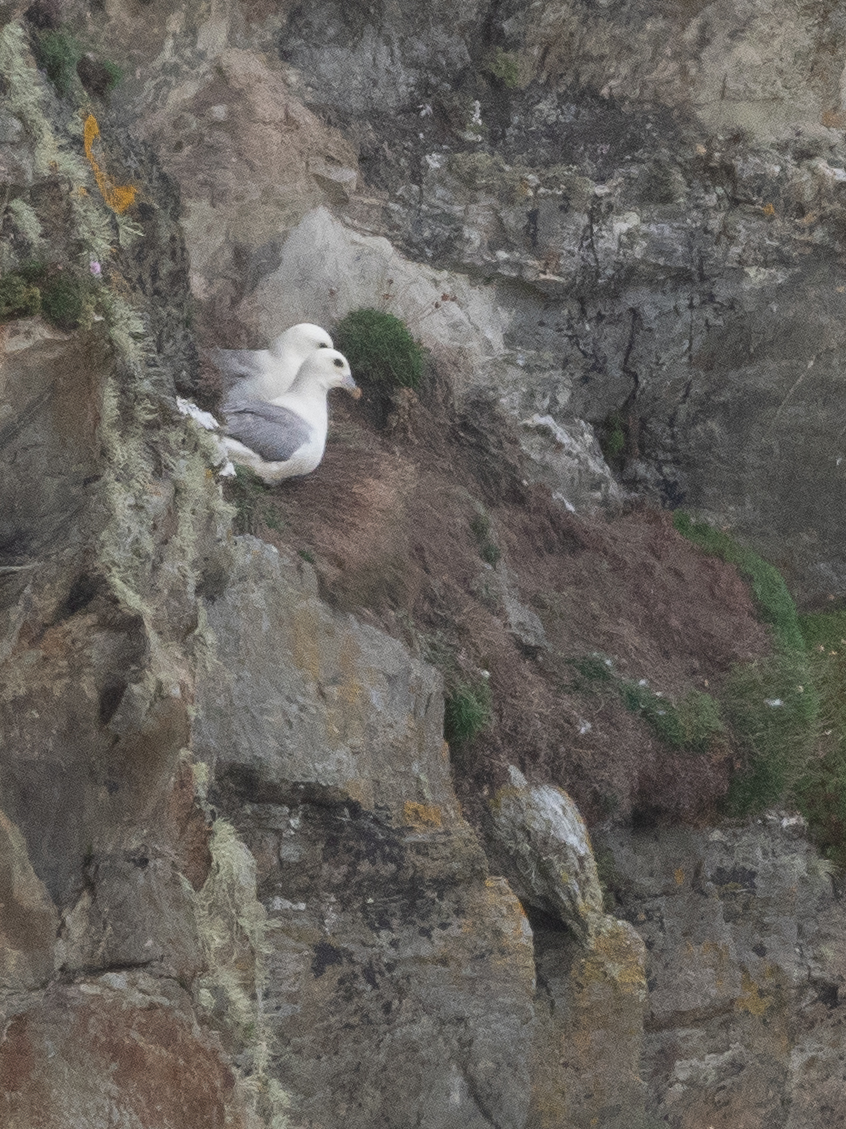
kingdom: Animalia
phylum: Chordata
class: Aves
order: Procellariiformes
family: Procellariidae
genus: Fulmarus
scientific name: Fulmarus glacialis
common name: Northern fulmar
